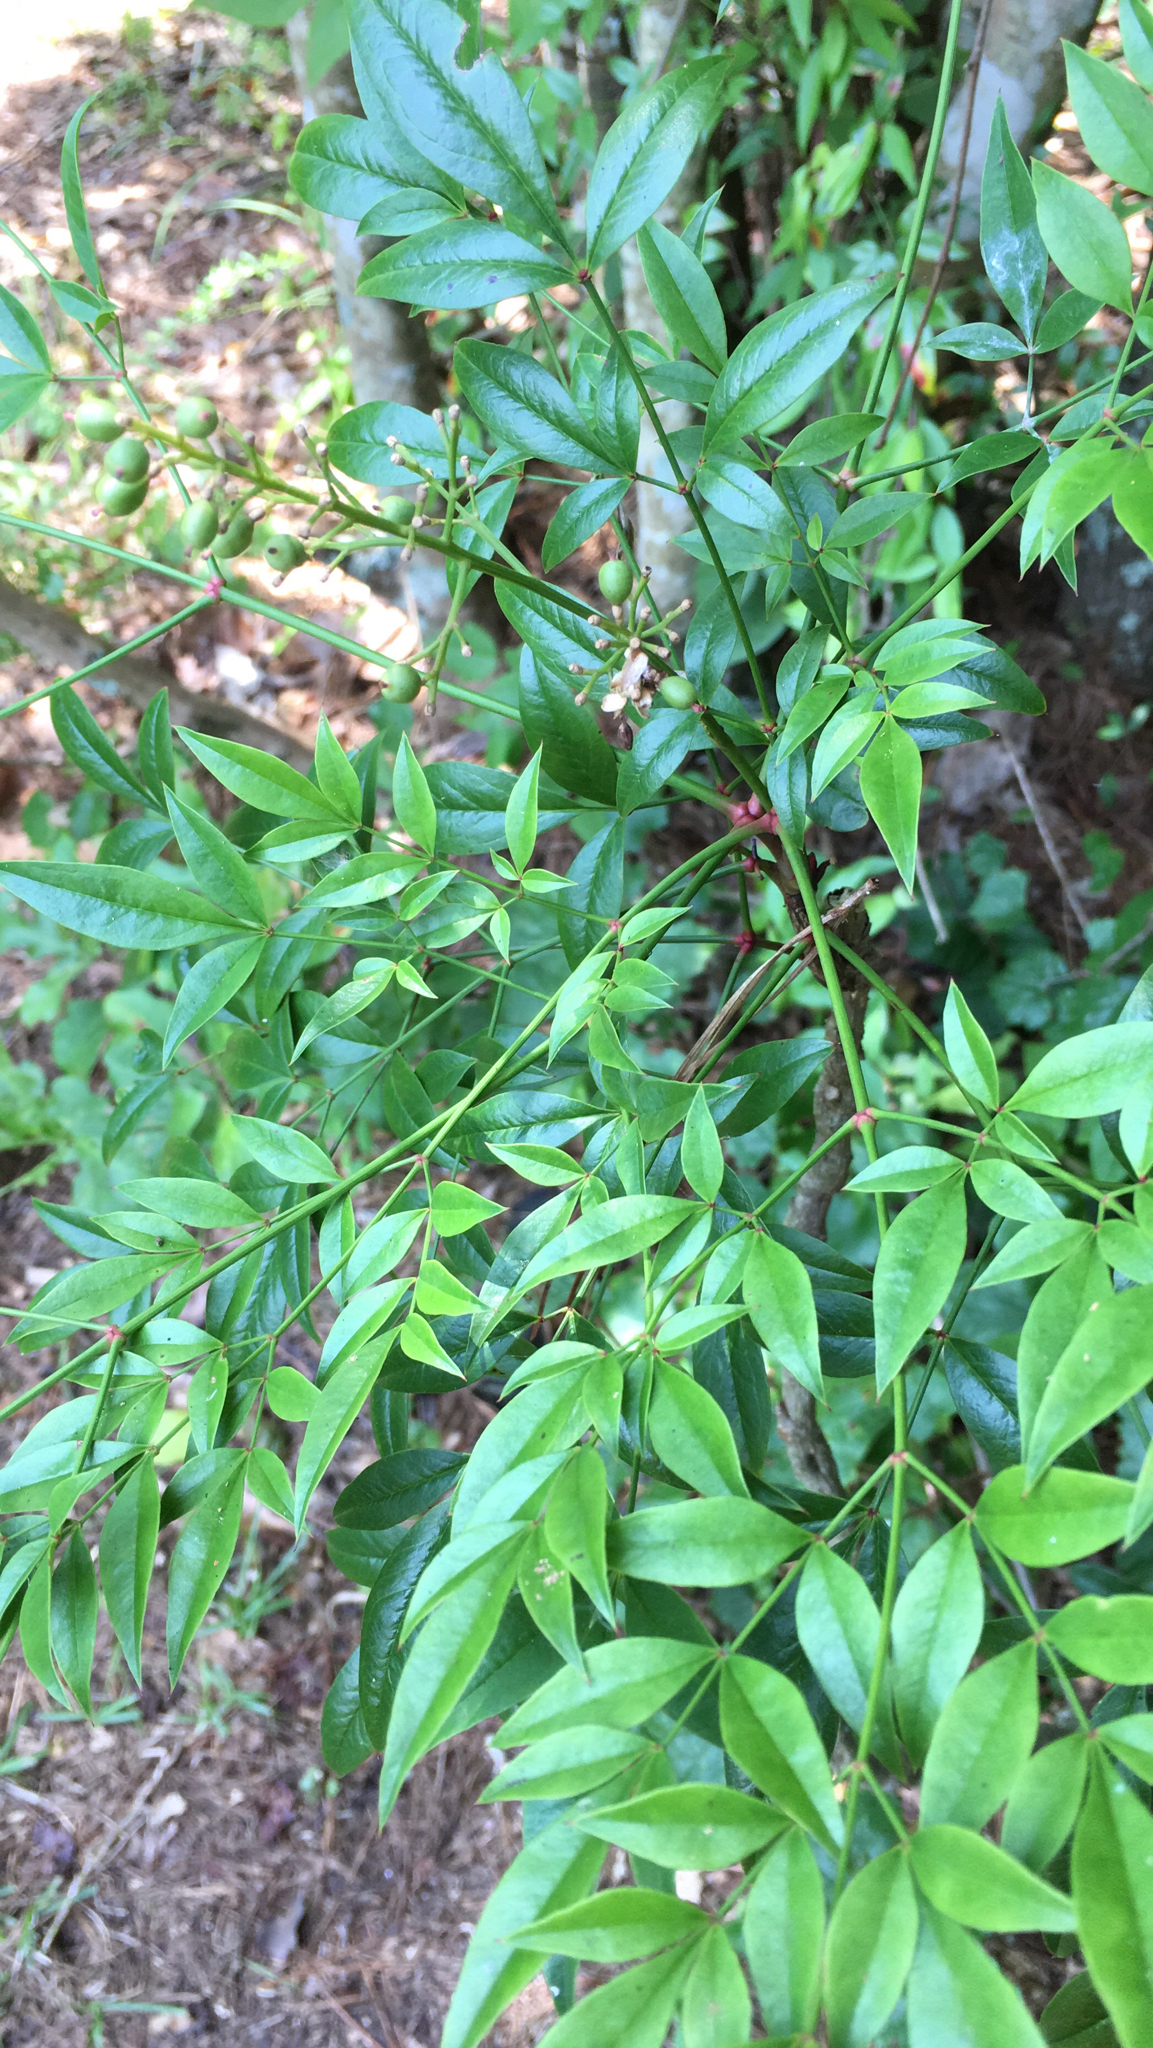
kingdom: Plantae
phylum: Tracheophyta
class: Magnoliopsida
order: Ranunculales
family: Berberidaceae
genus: Nandina
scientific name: Nandina domestica
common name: Sacred bamboo
